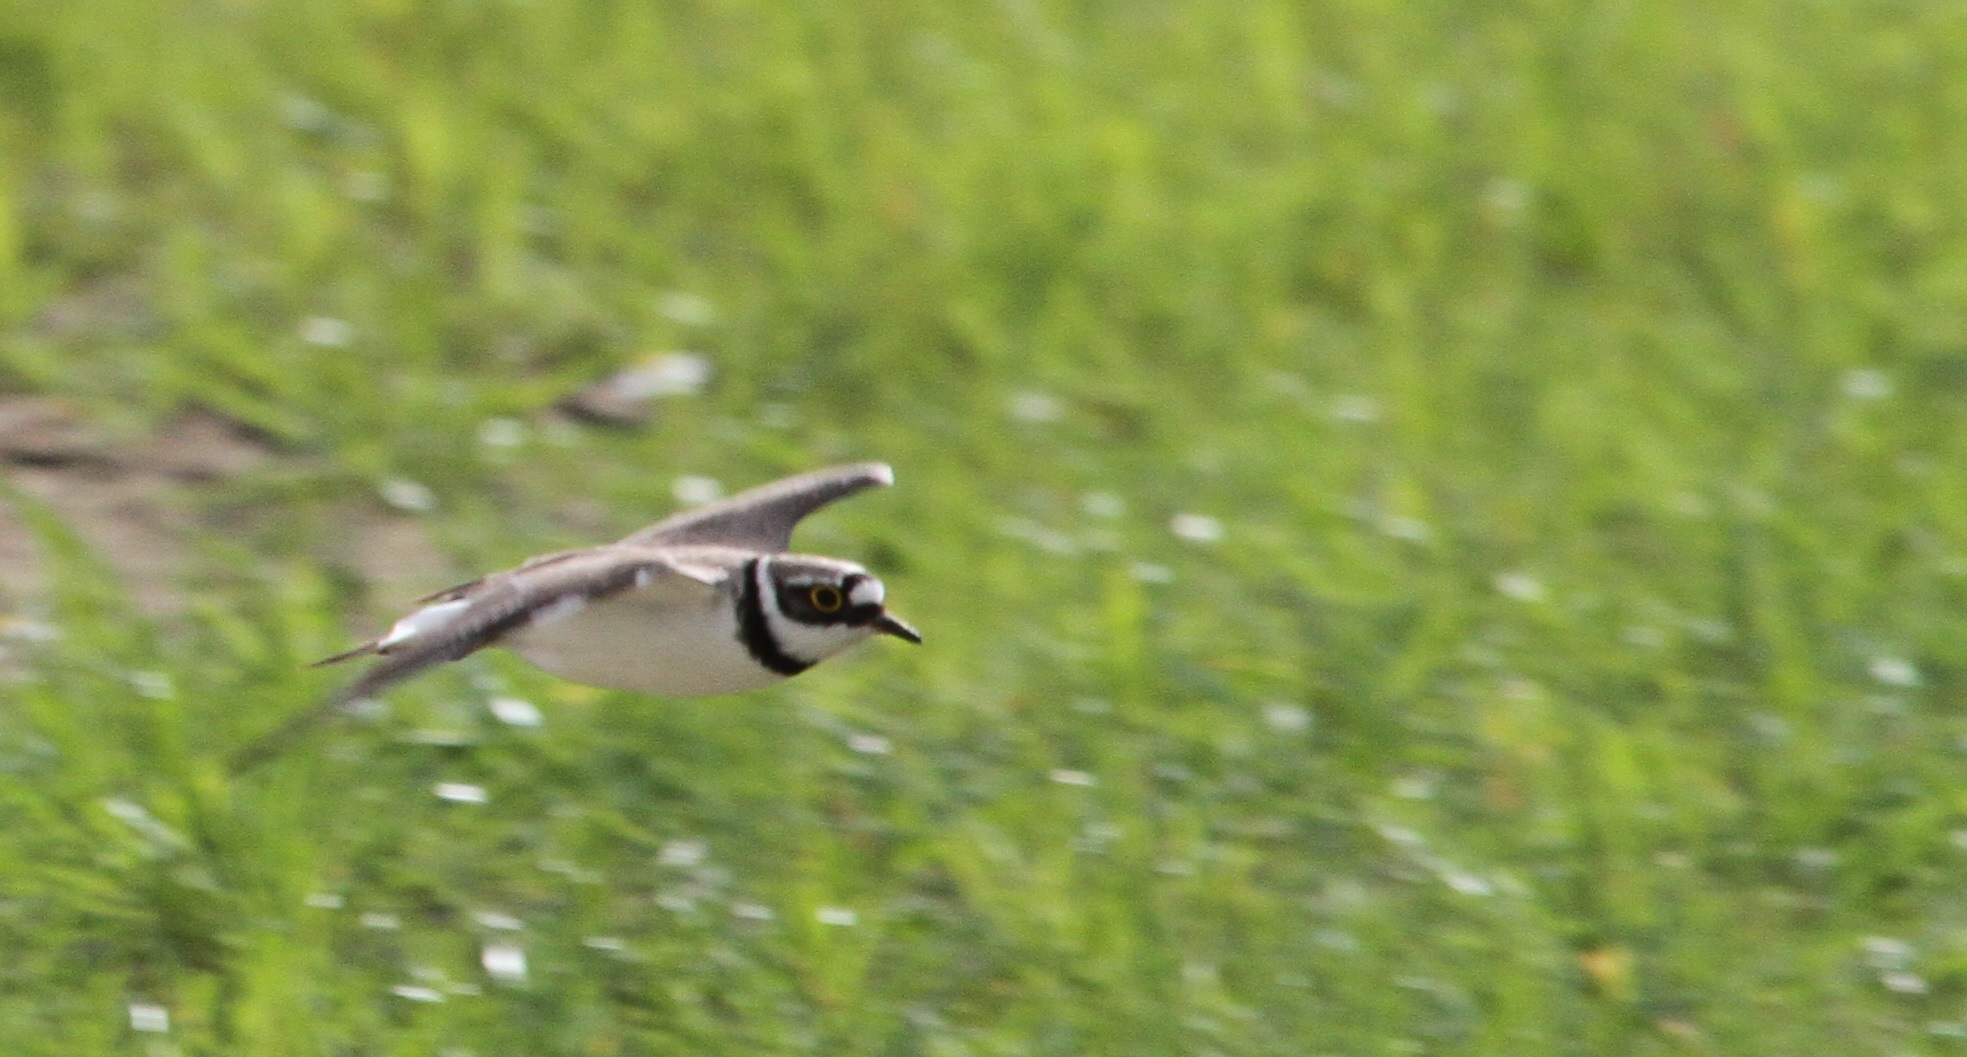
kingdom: Animalia
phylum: Chordata
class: Aves
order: Charadriiformes
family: Charadriidae
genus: Charadrius
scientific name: Charadrius dubius
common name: Little ringed plover
